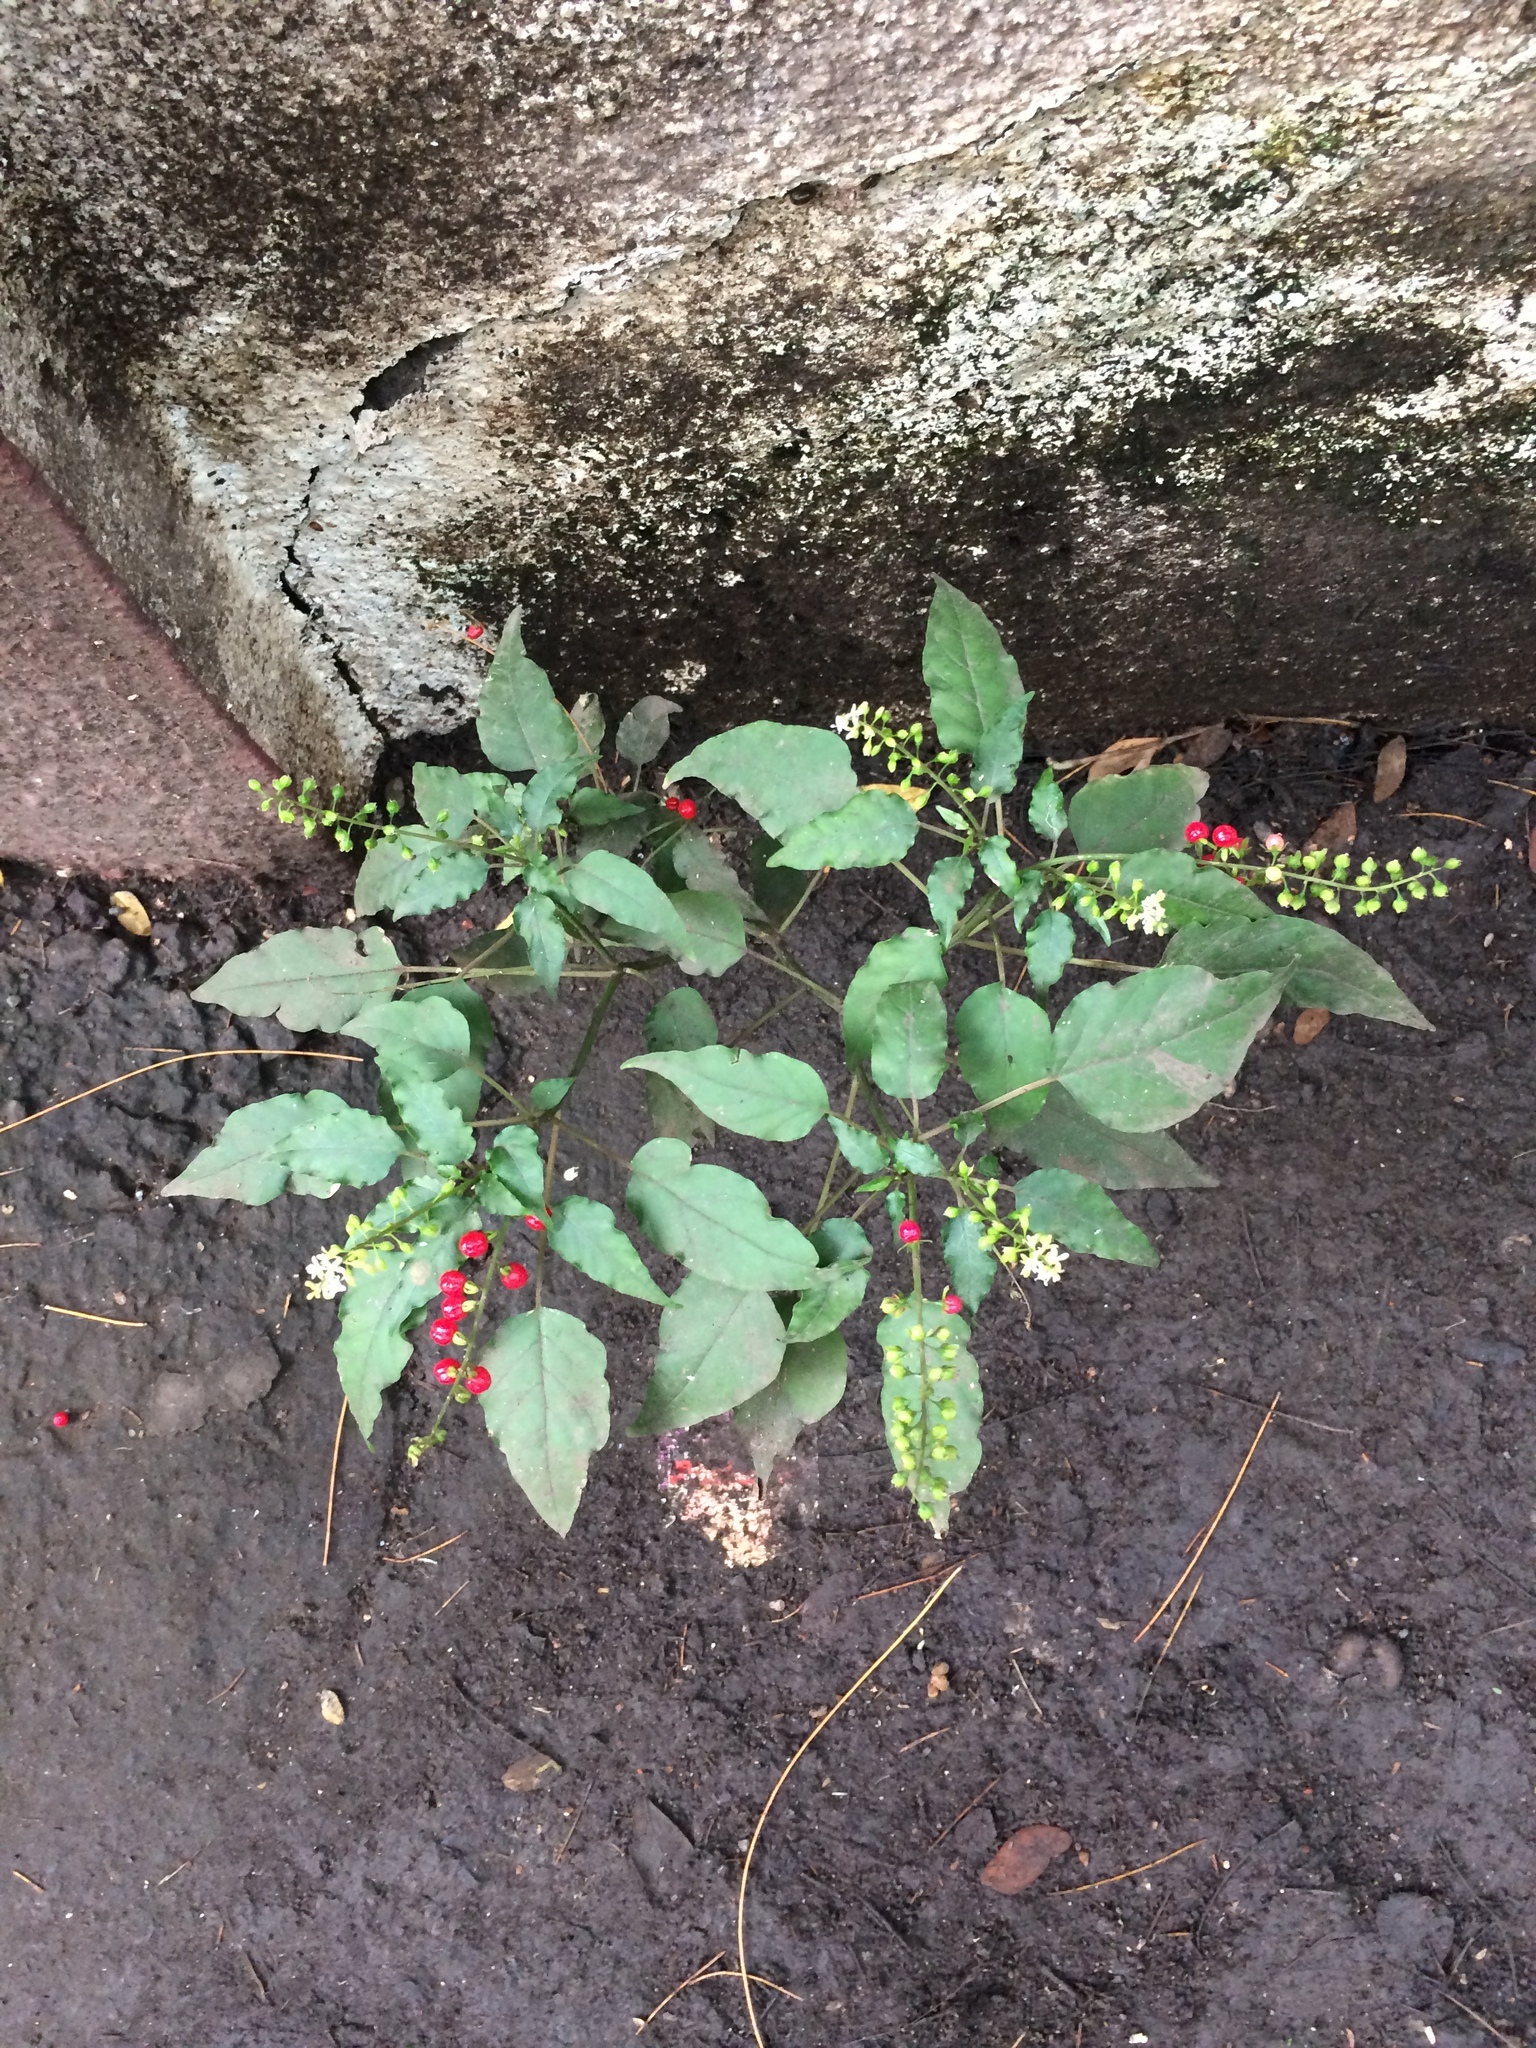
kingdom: Plantae
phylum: Tracheophyta
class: Magnoliopsida
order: Caryophyllales
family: Phytolaccaceae
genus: Rivina
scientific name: Rivina humilis
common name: Rougeplant
